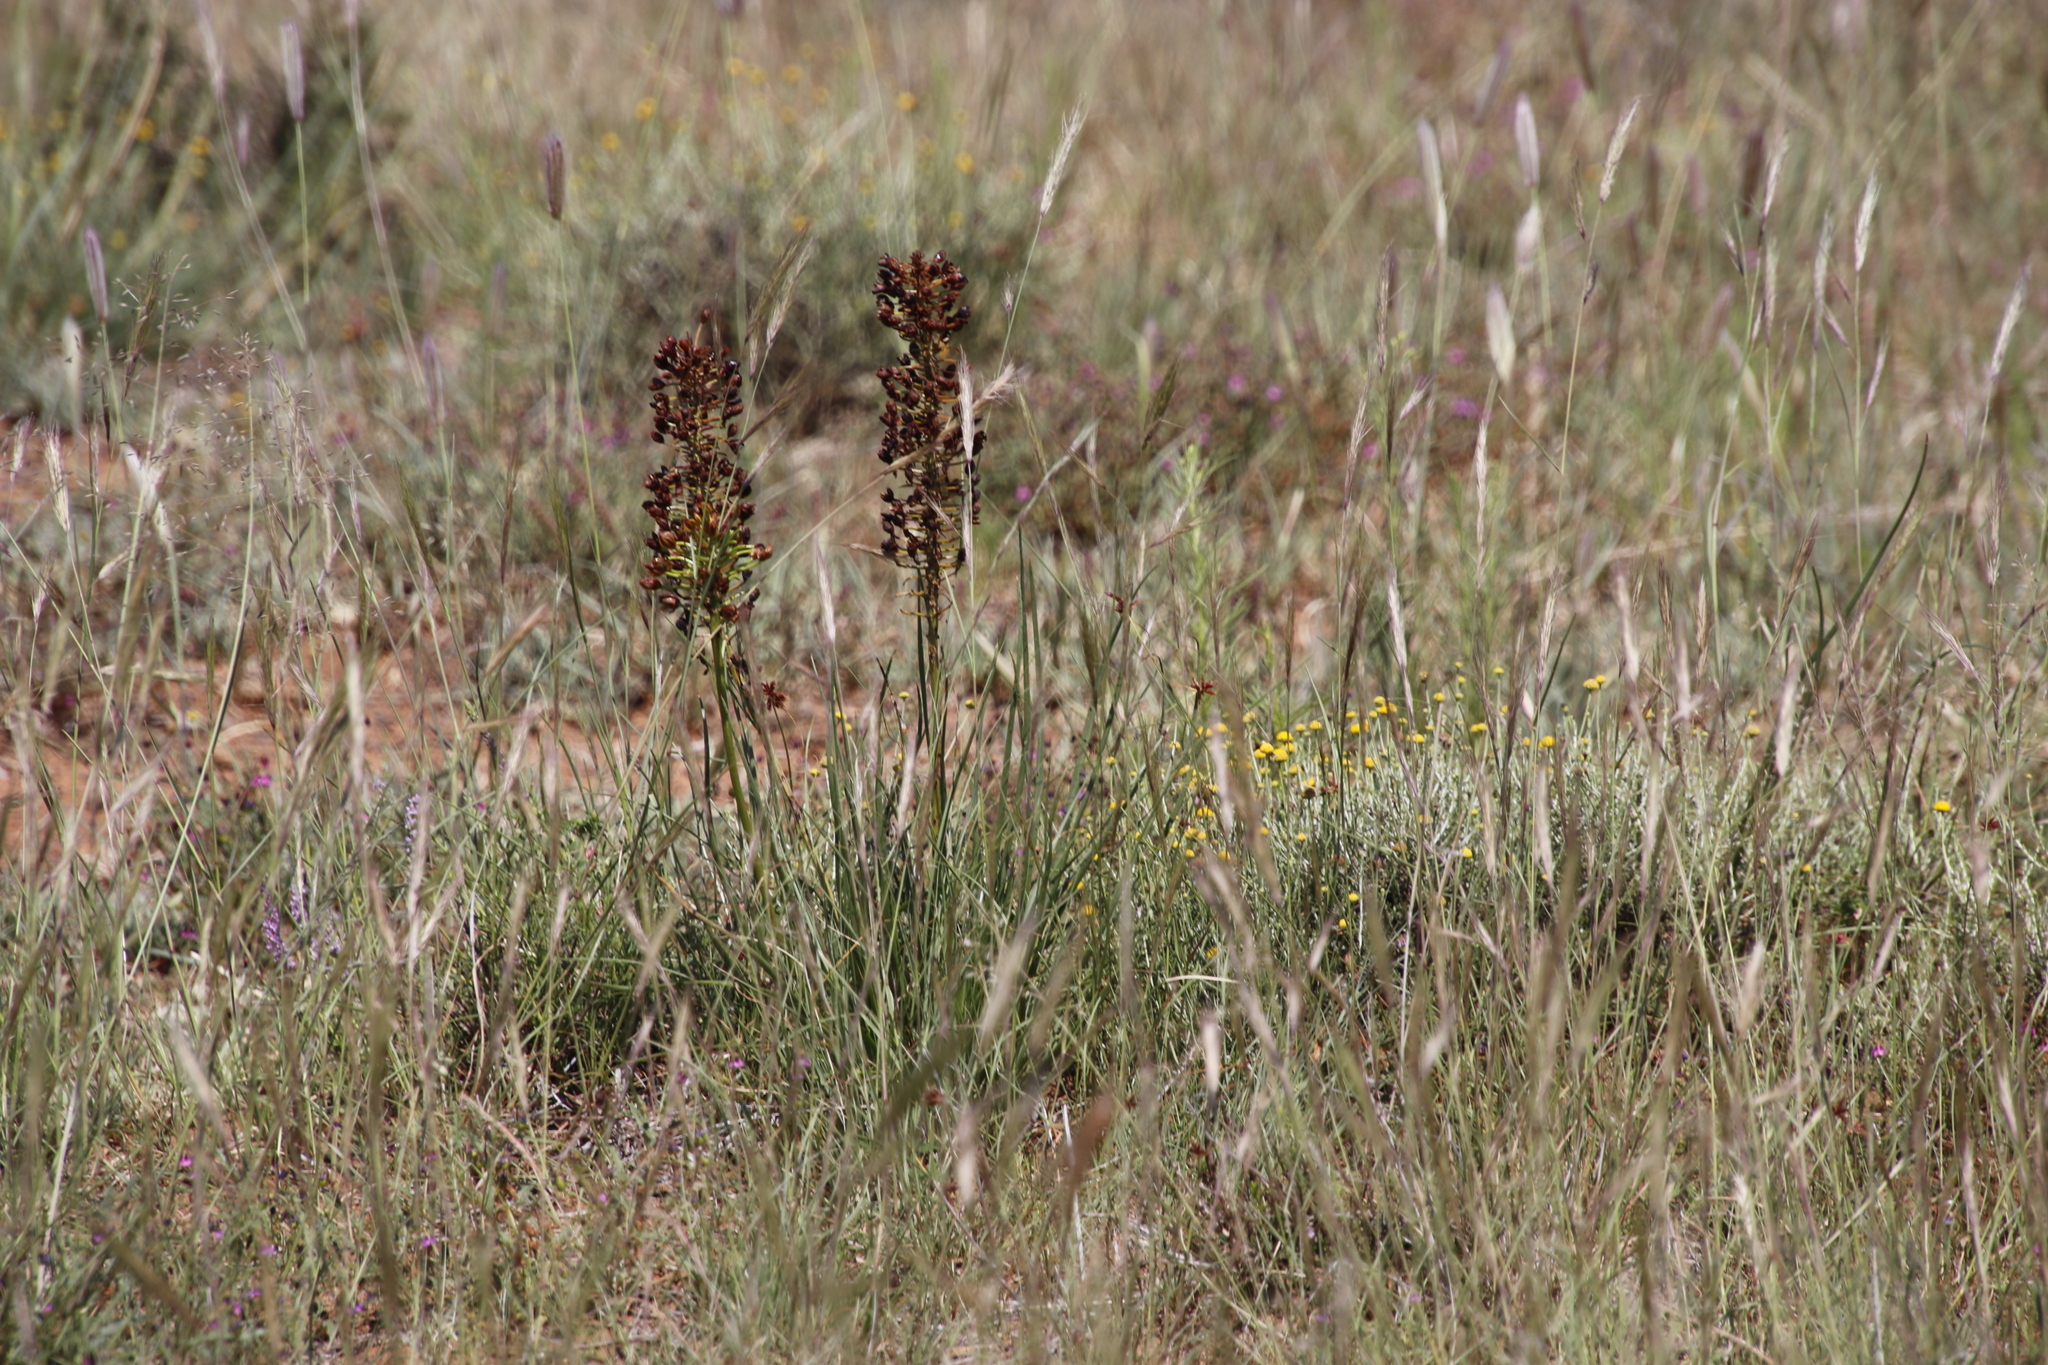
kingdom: Plantae
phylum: Tracheophyta
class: Liliopsida
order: Asparagales
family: Asphodelaceae
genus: Bulbine
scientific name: Bulbine abyssinica
